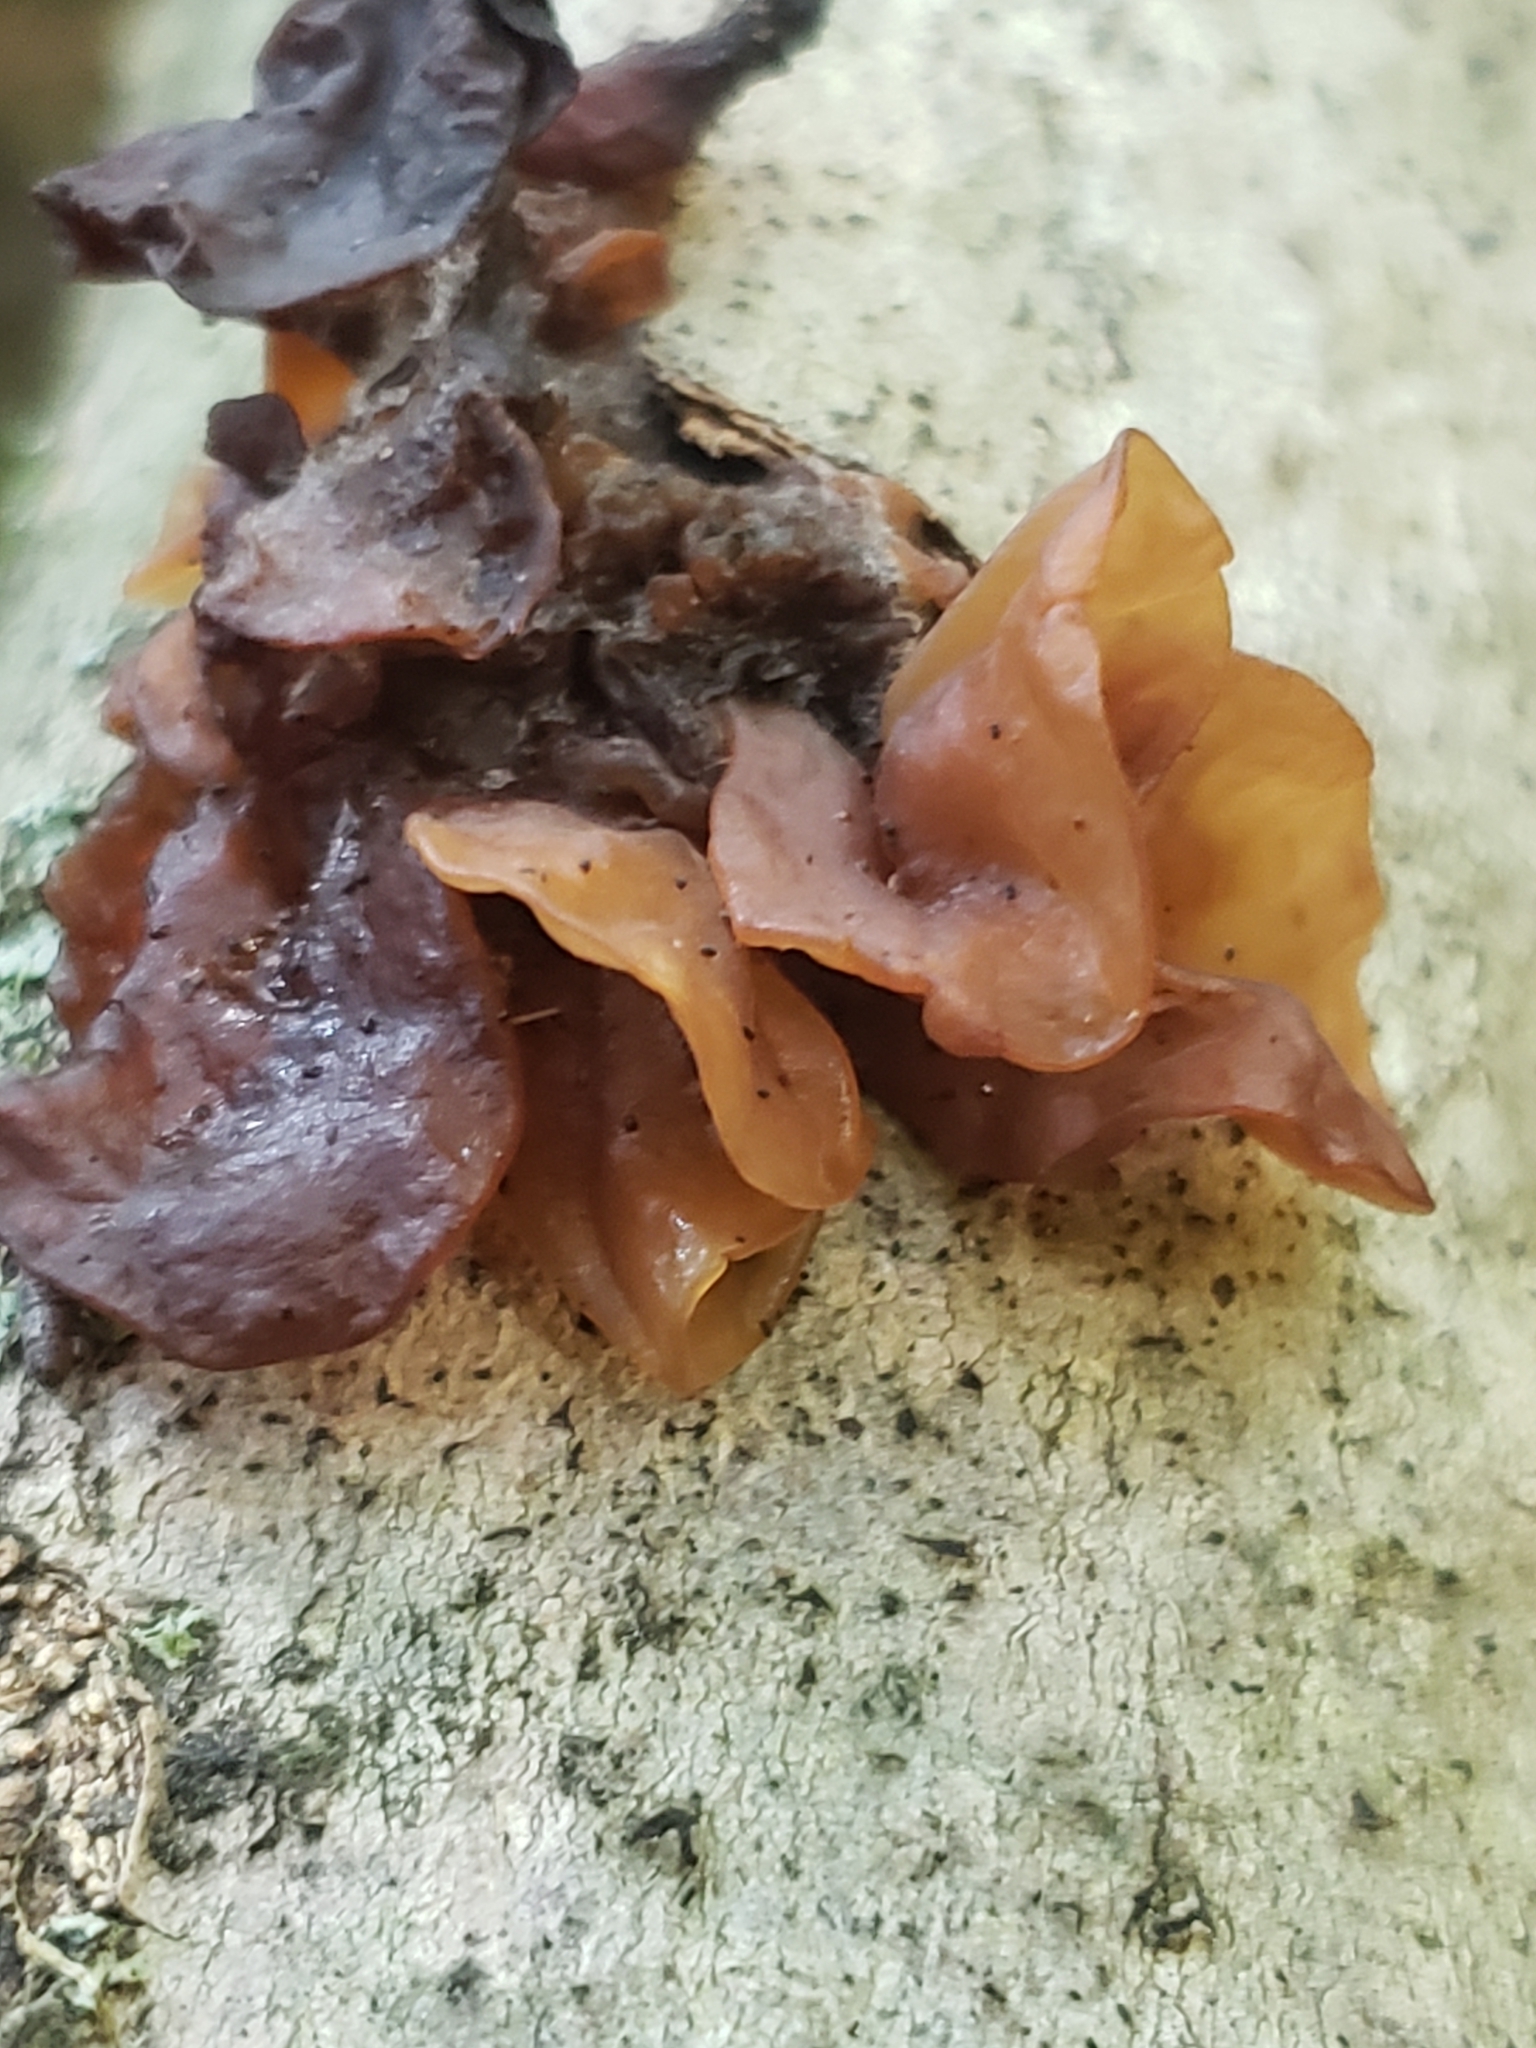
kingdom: Fungi
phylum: Basidiomycota
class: Tremellomycetes
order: Tremellales
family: Tremellaceae
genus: Phaeotremella
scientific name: Phaeotremella foliacea
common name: Leafy brain
